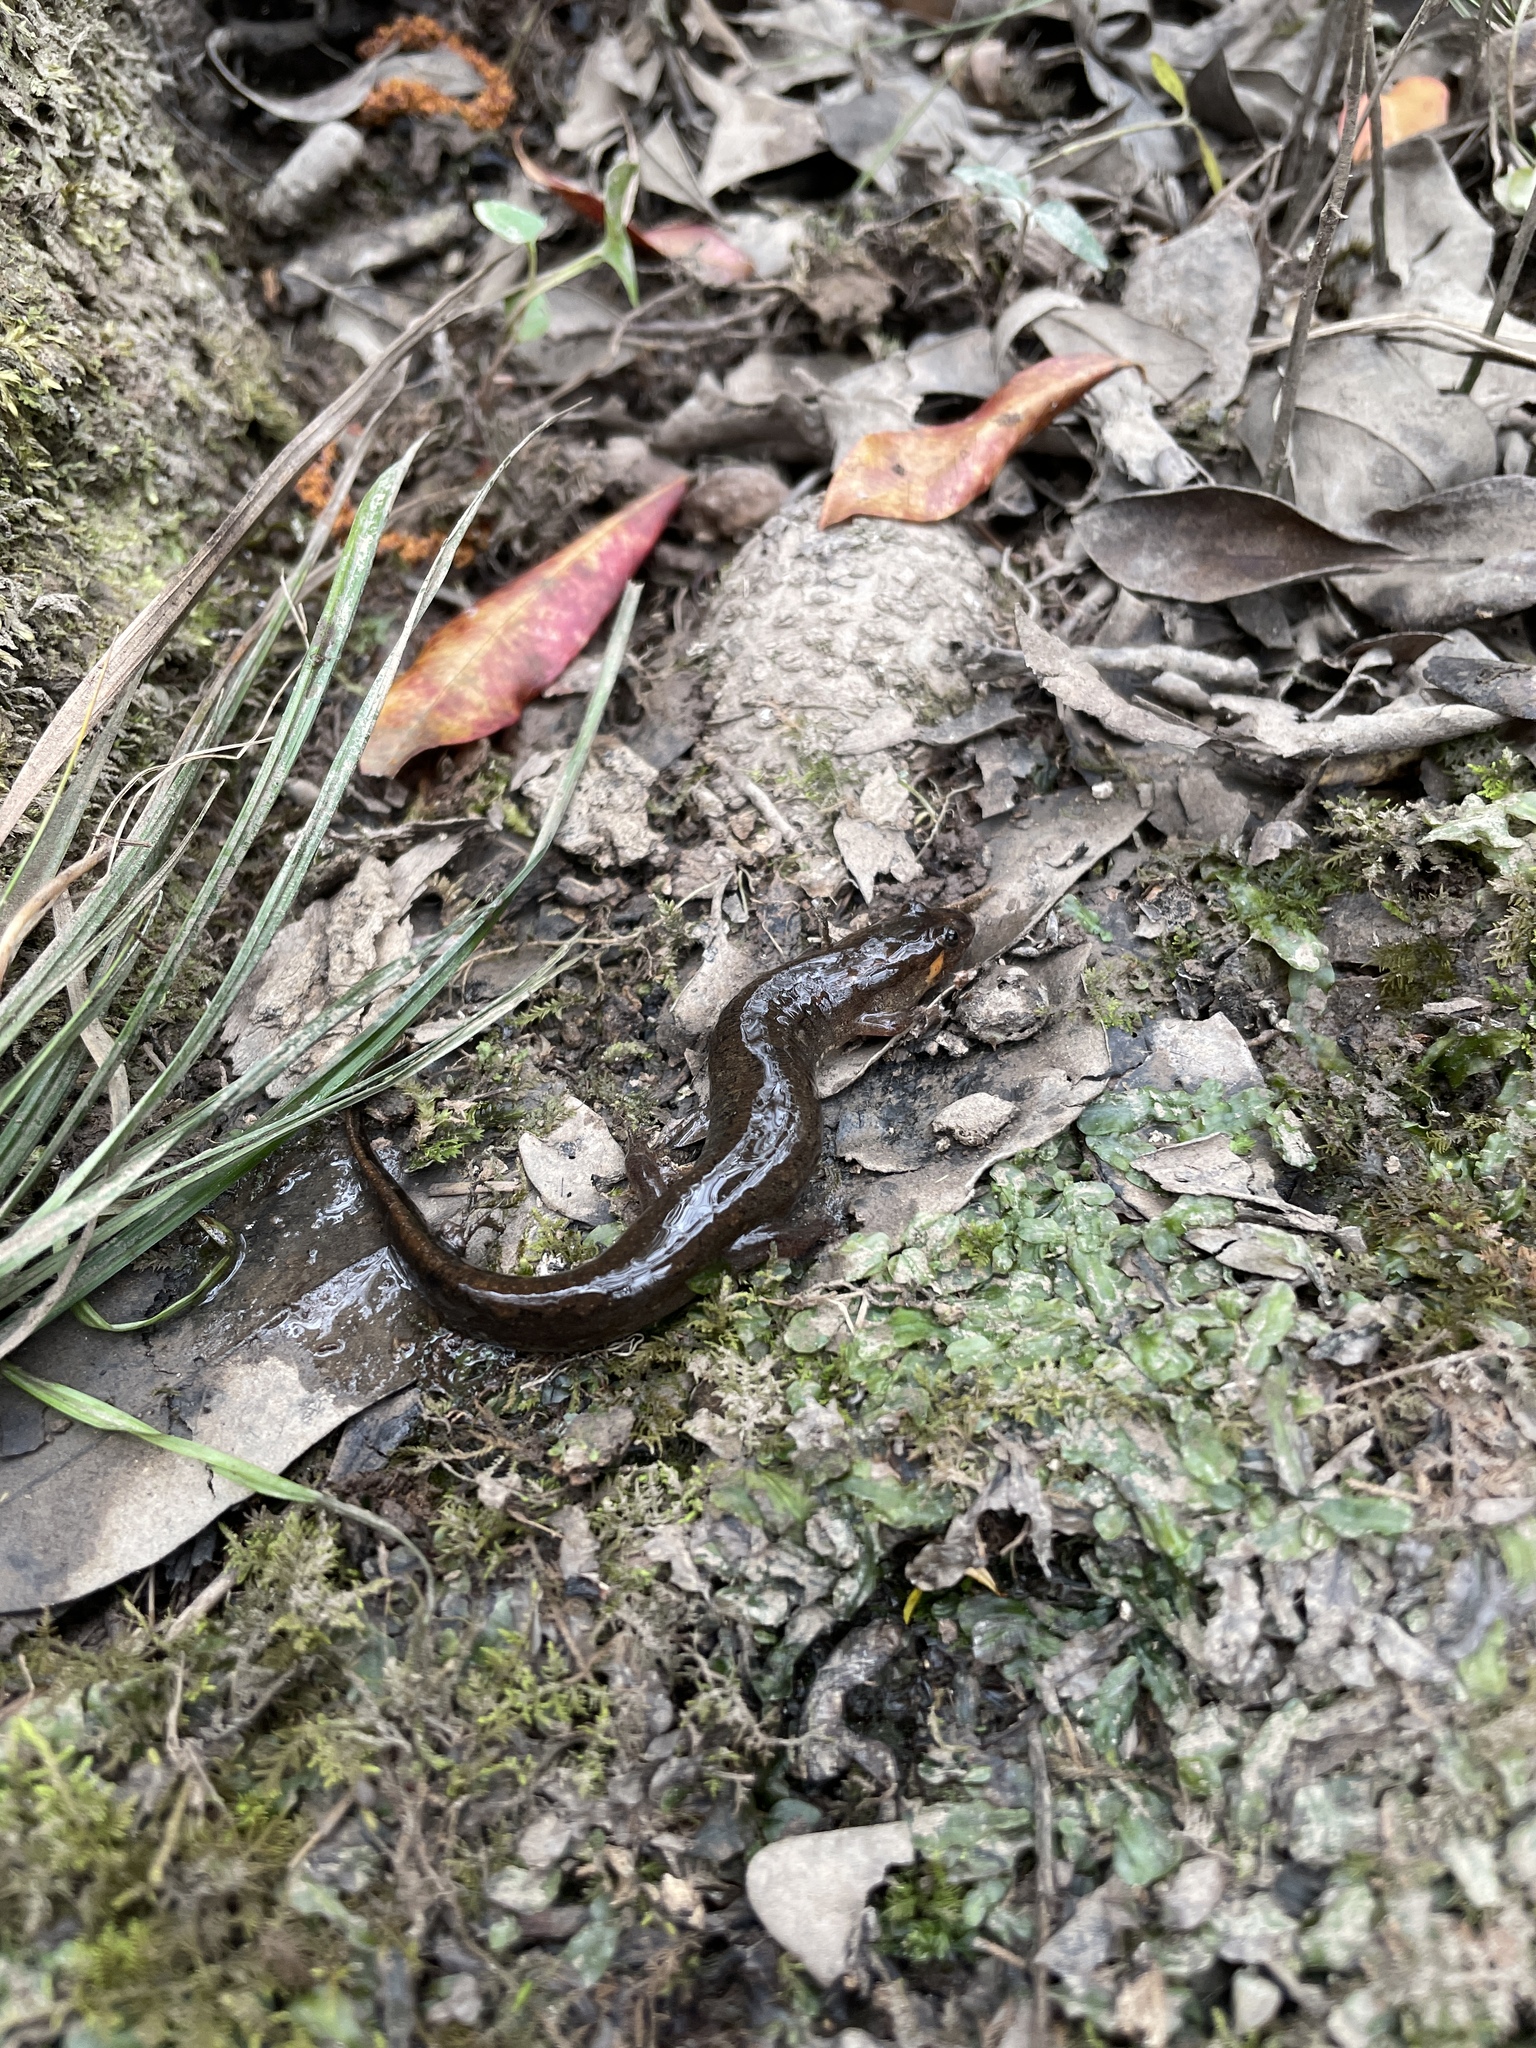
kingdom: Animalia
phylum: Chordata
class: Amphibia
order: Caudata
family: Plethodontidae
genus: Desmognathus
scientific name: Desmognathus
